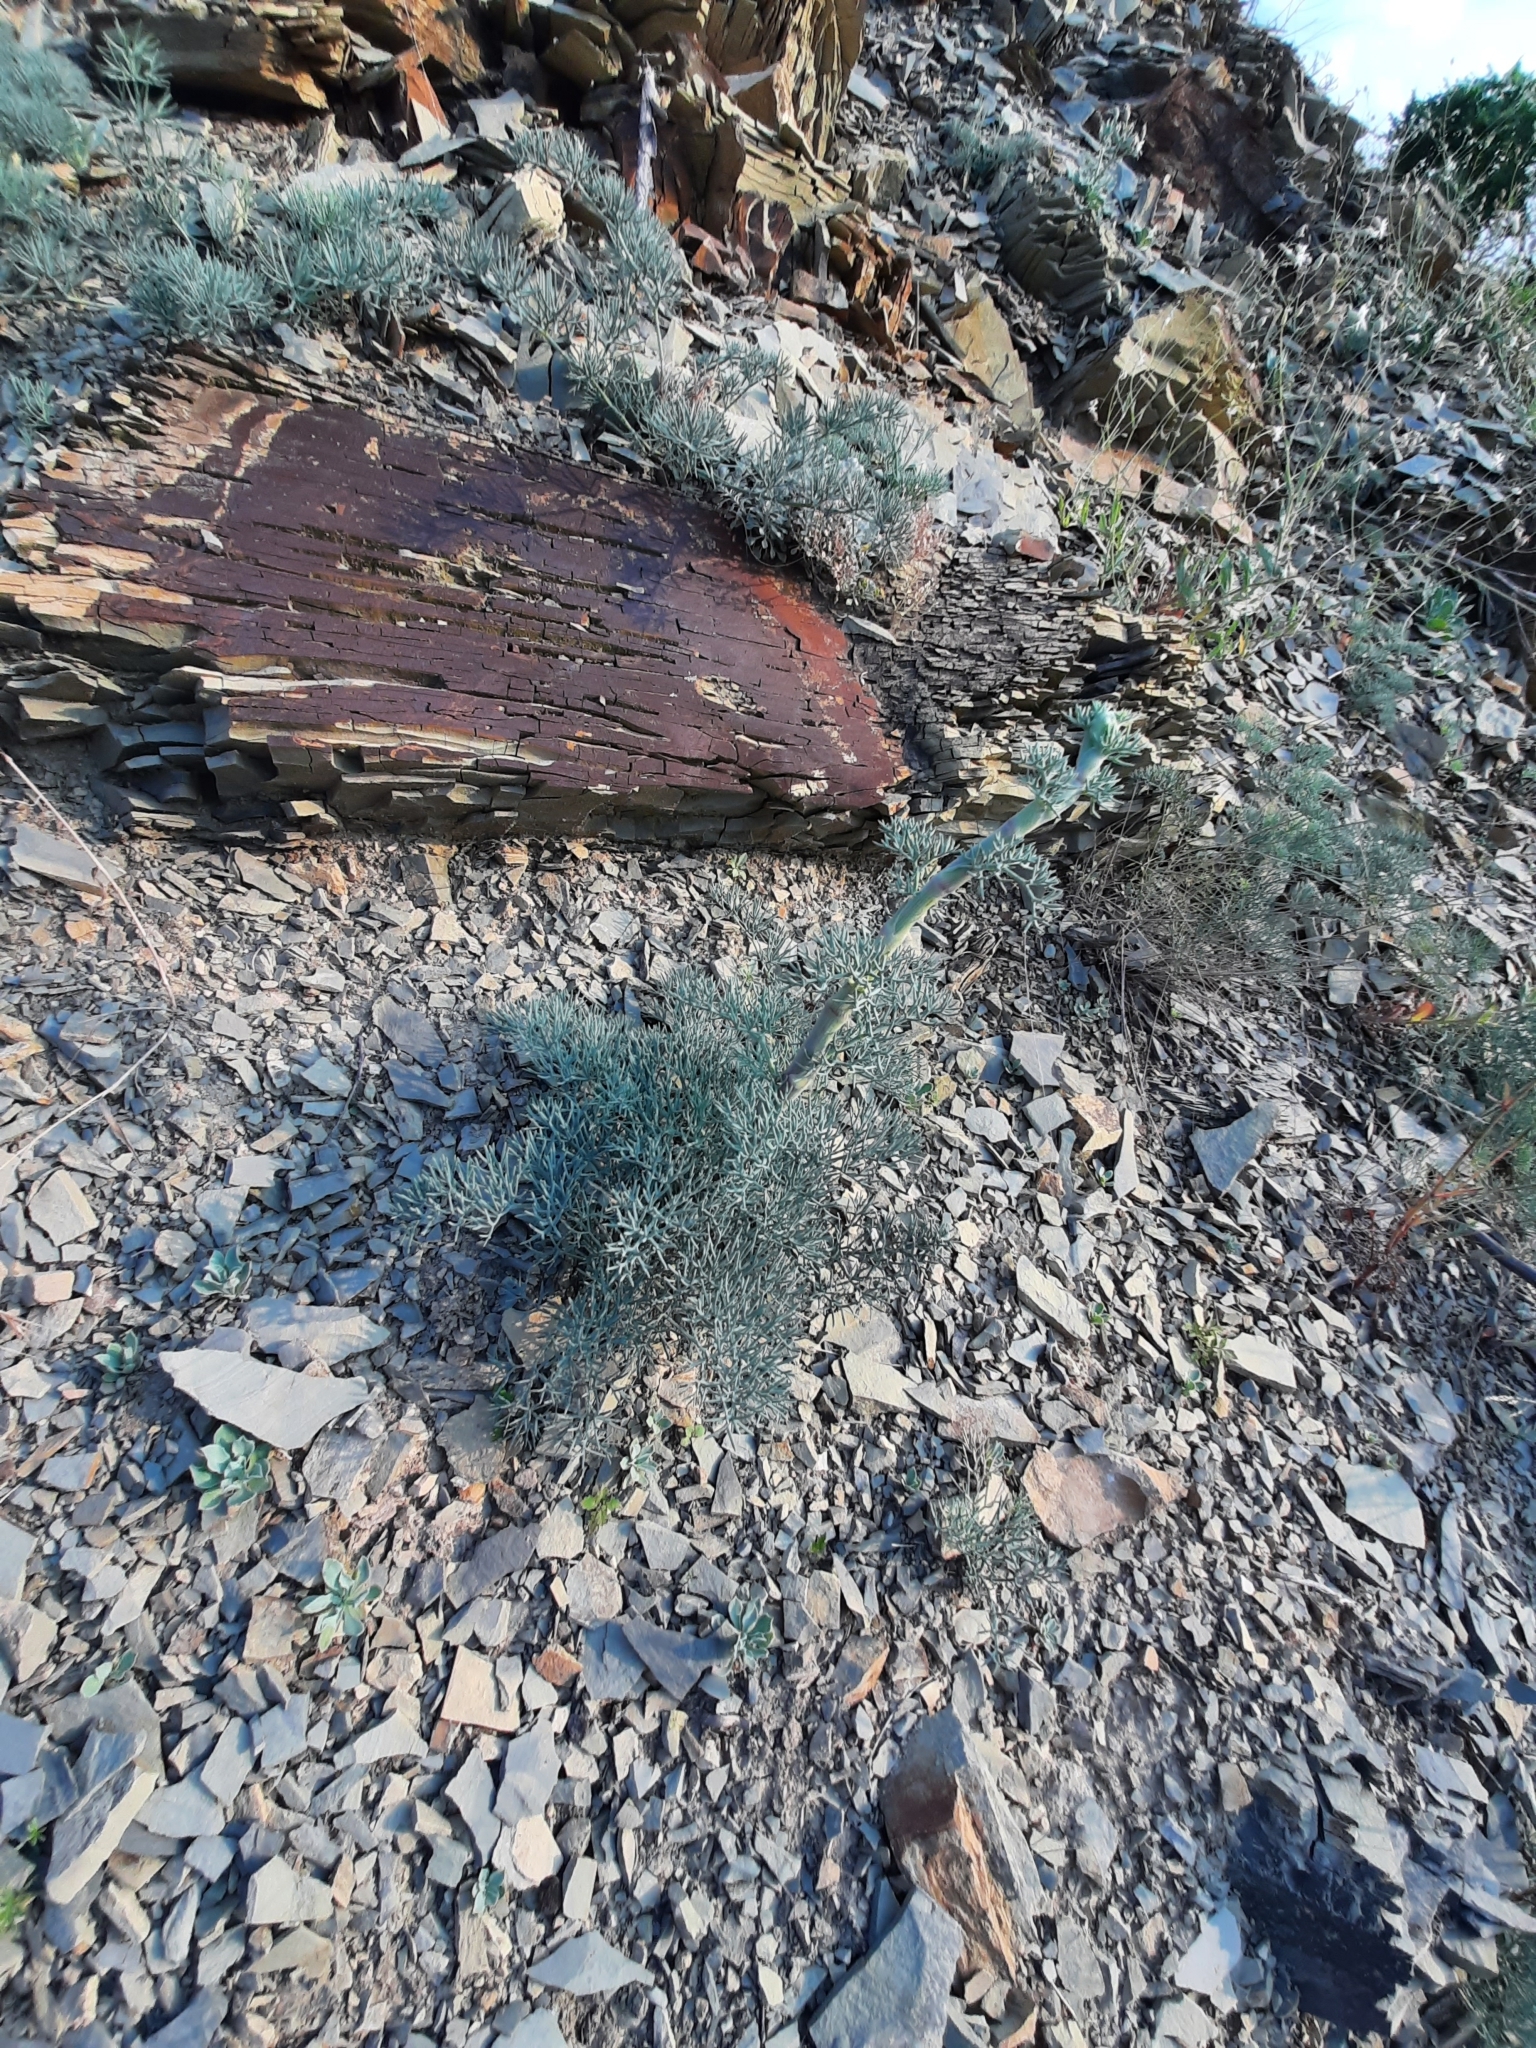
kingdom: Plantae
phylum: Tracheophyta
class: Magnoliopsida
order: Apiales
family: Apiaceae
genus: Seseli
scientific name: Seseli ponticum
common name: Pontic seseli
